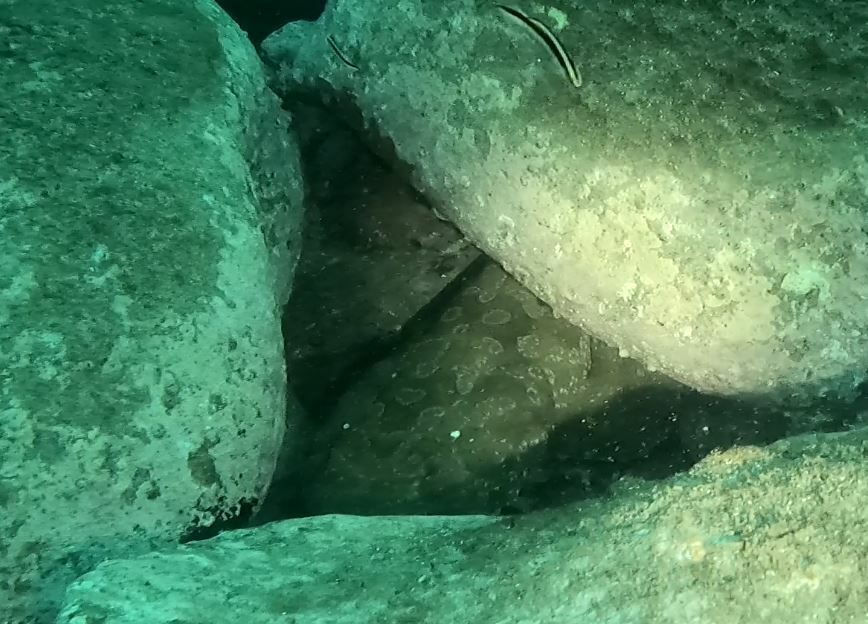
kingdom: Animalia
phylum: Chordata
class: Elasmobranchii
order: Orectolobiformes
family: Orectolobidae
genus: Orectolobus
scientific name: Orectolobus maculatus
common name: Spotted wobbegong
